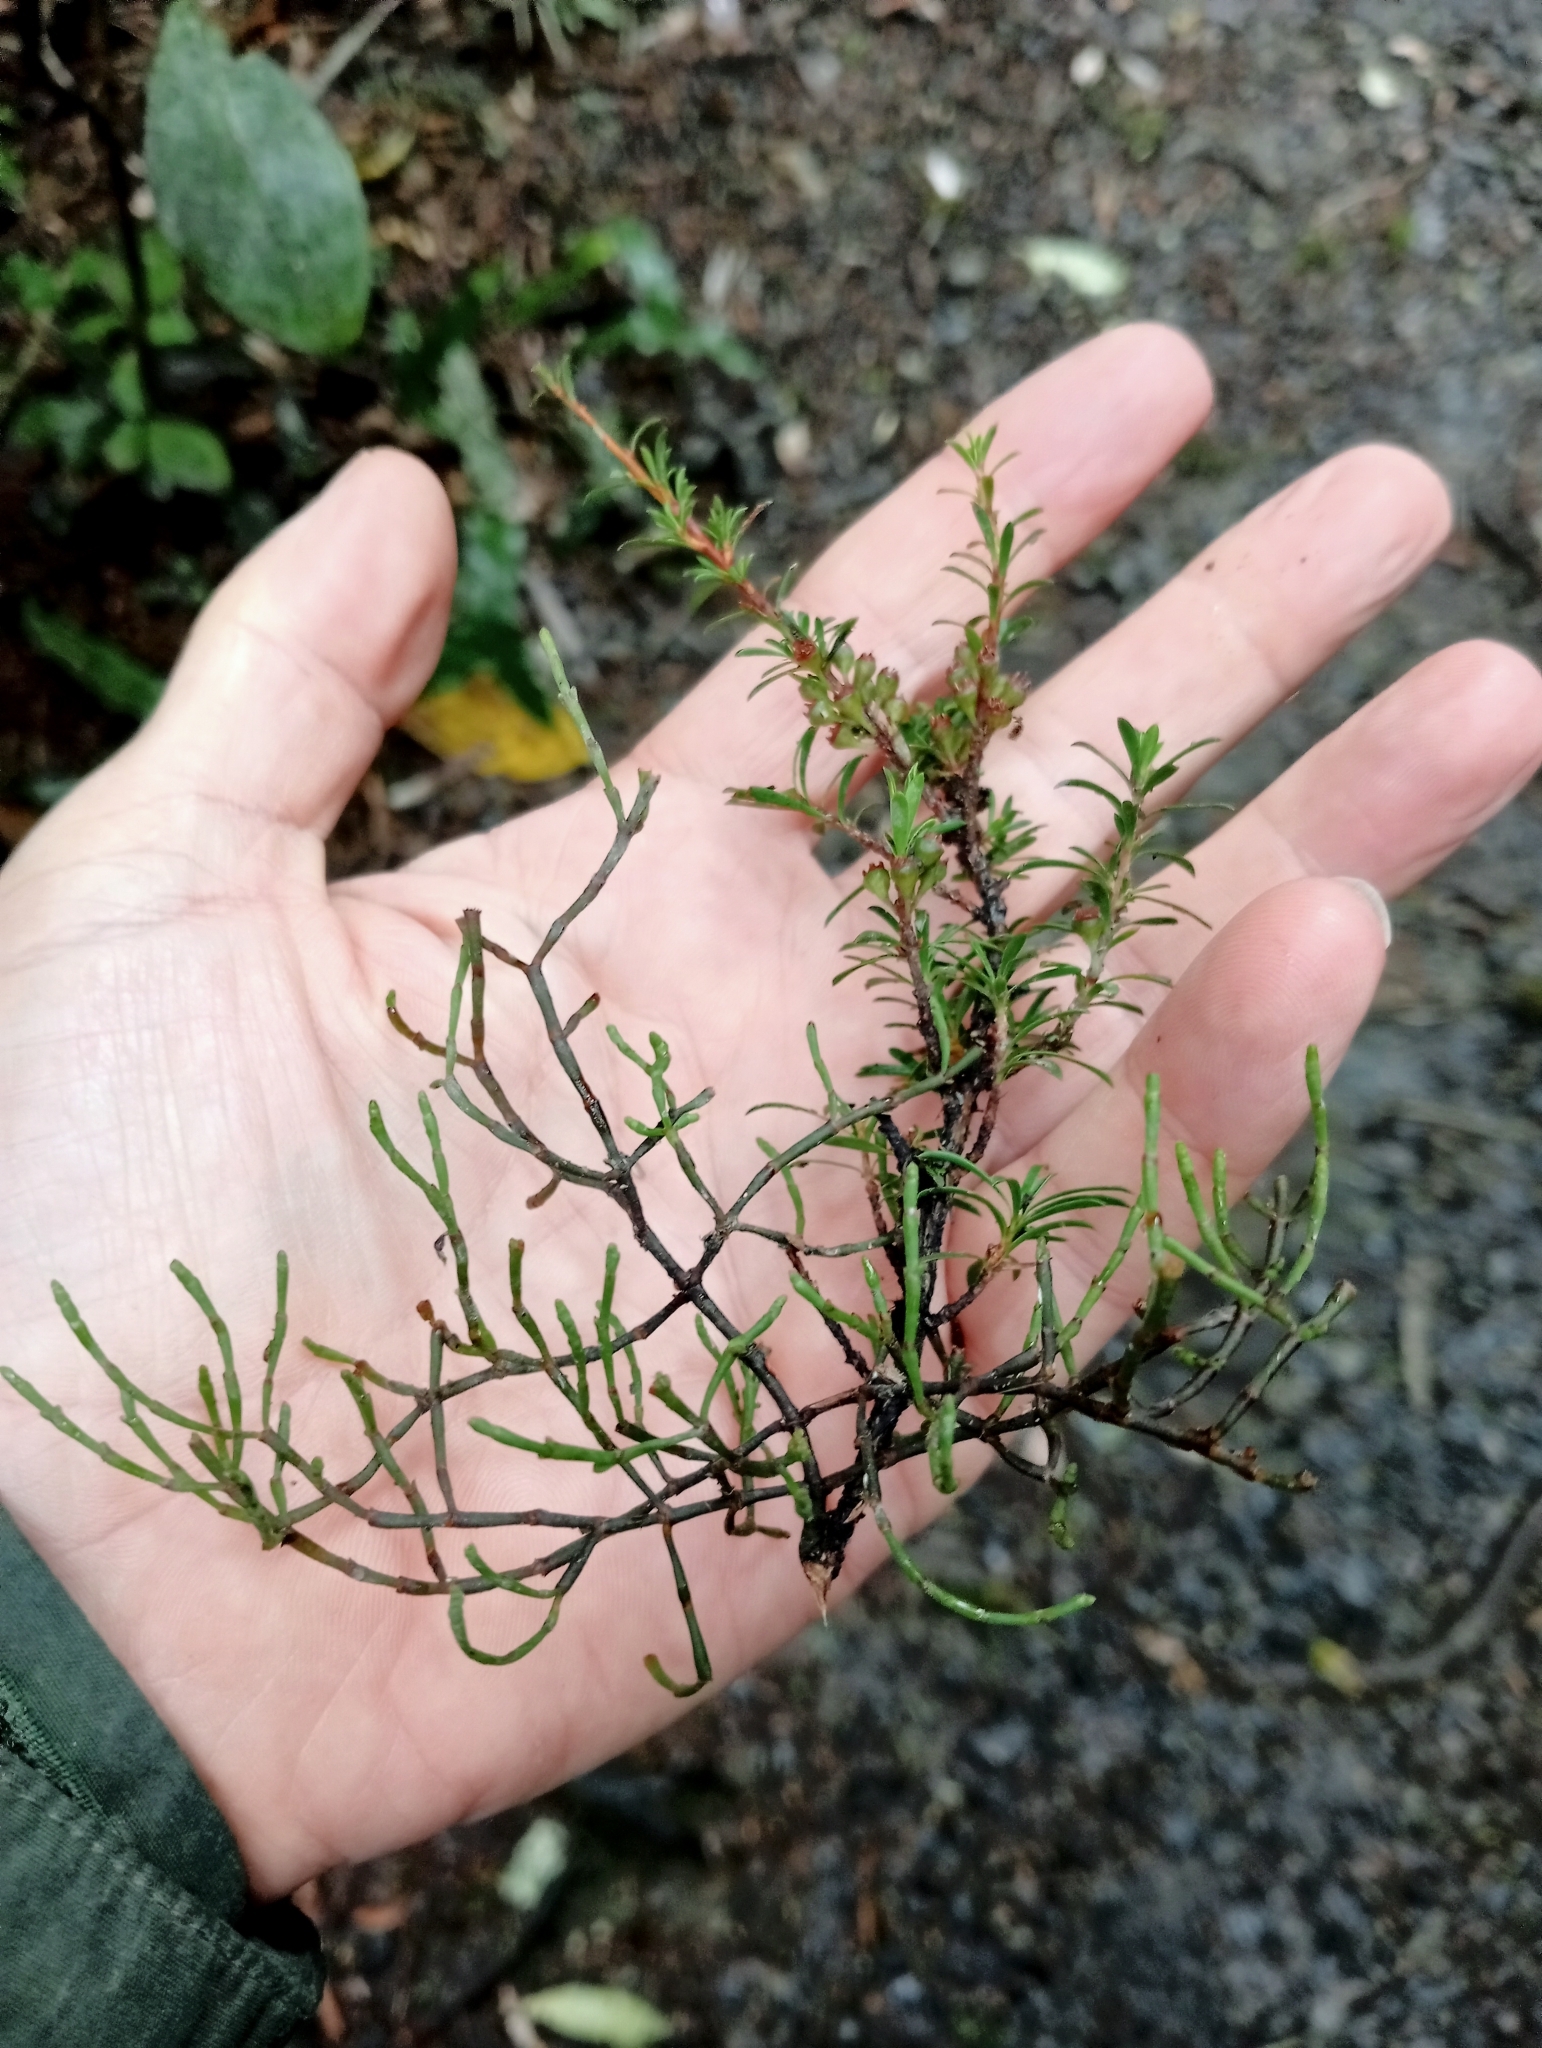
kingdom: Plantae
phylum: Tracheophyta
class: Magnoliopsida
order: Santalales
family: Viscaceae
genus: Korthalsella
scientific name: Korthalsella salicornioides
